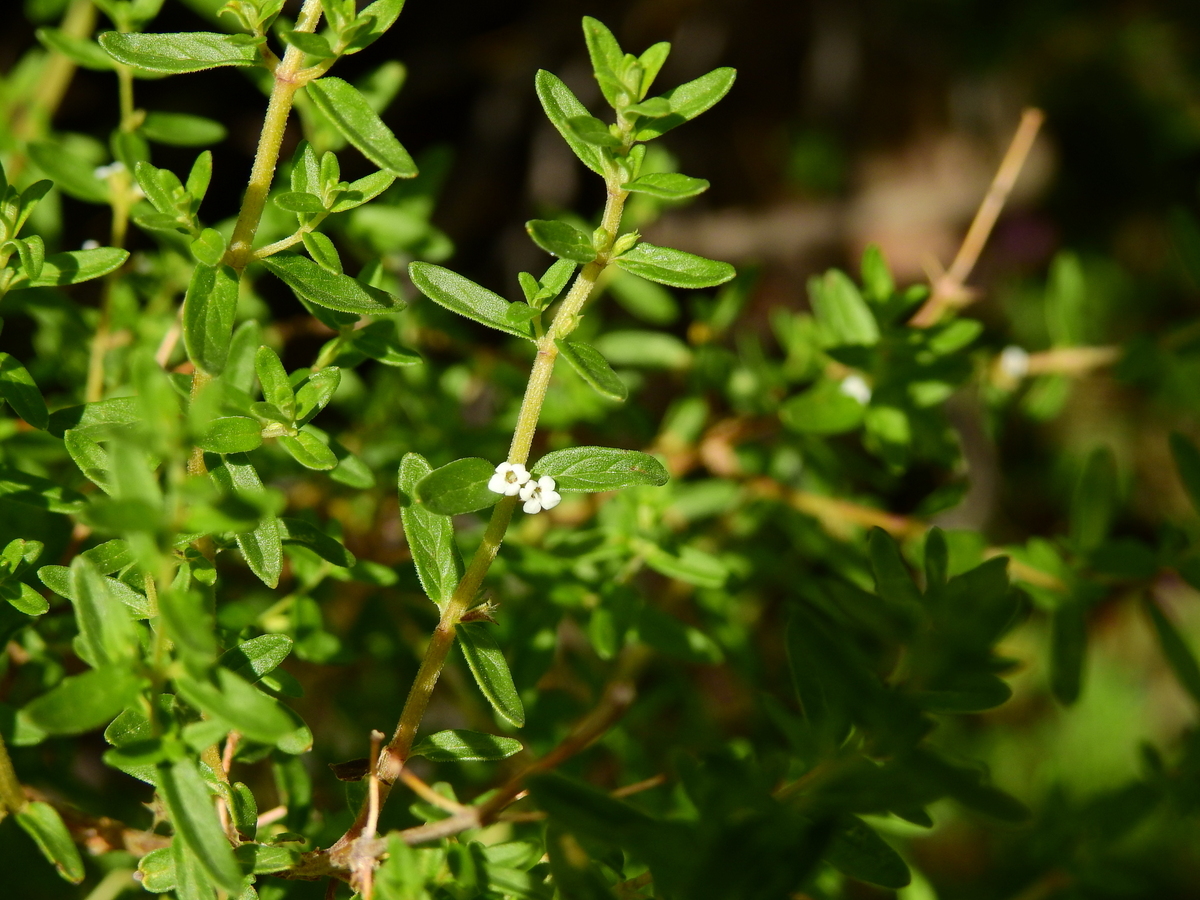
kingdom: Plantae
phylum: Tracheophyta
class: Magnoliopsida
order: Lamiales
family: Lamiaceae
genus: Clinopodium
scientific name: Clinopodium gilliesii
